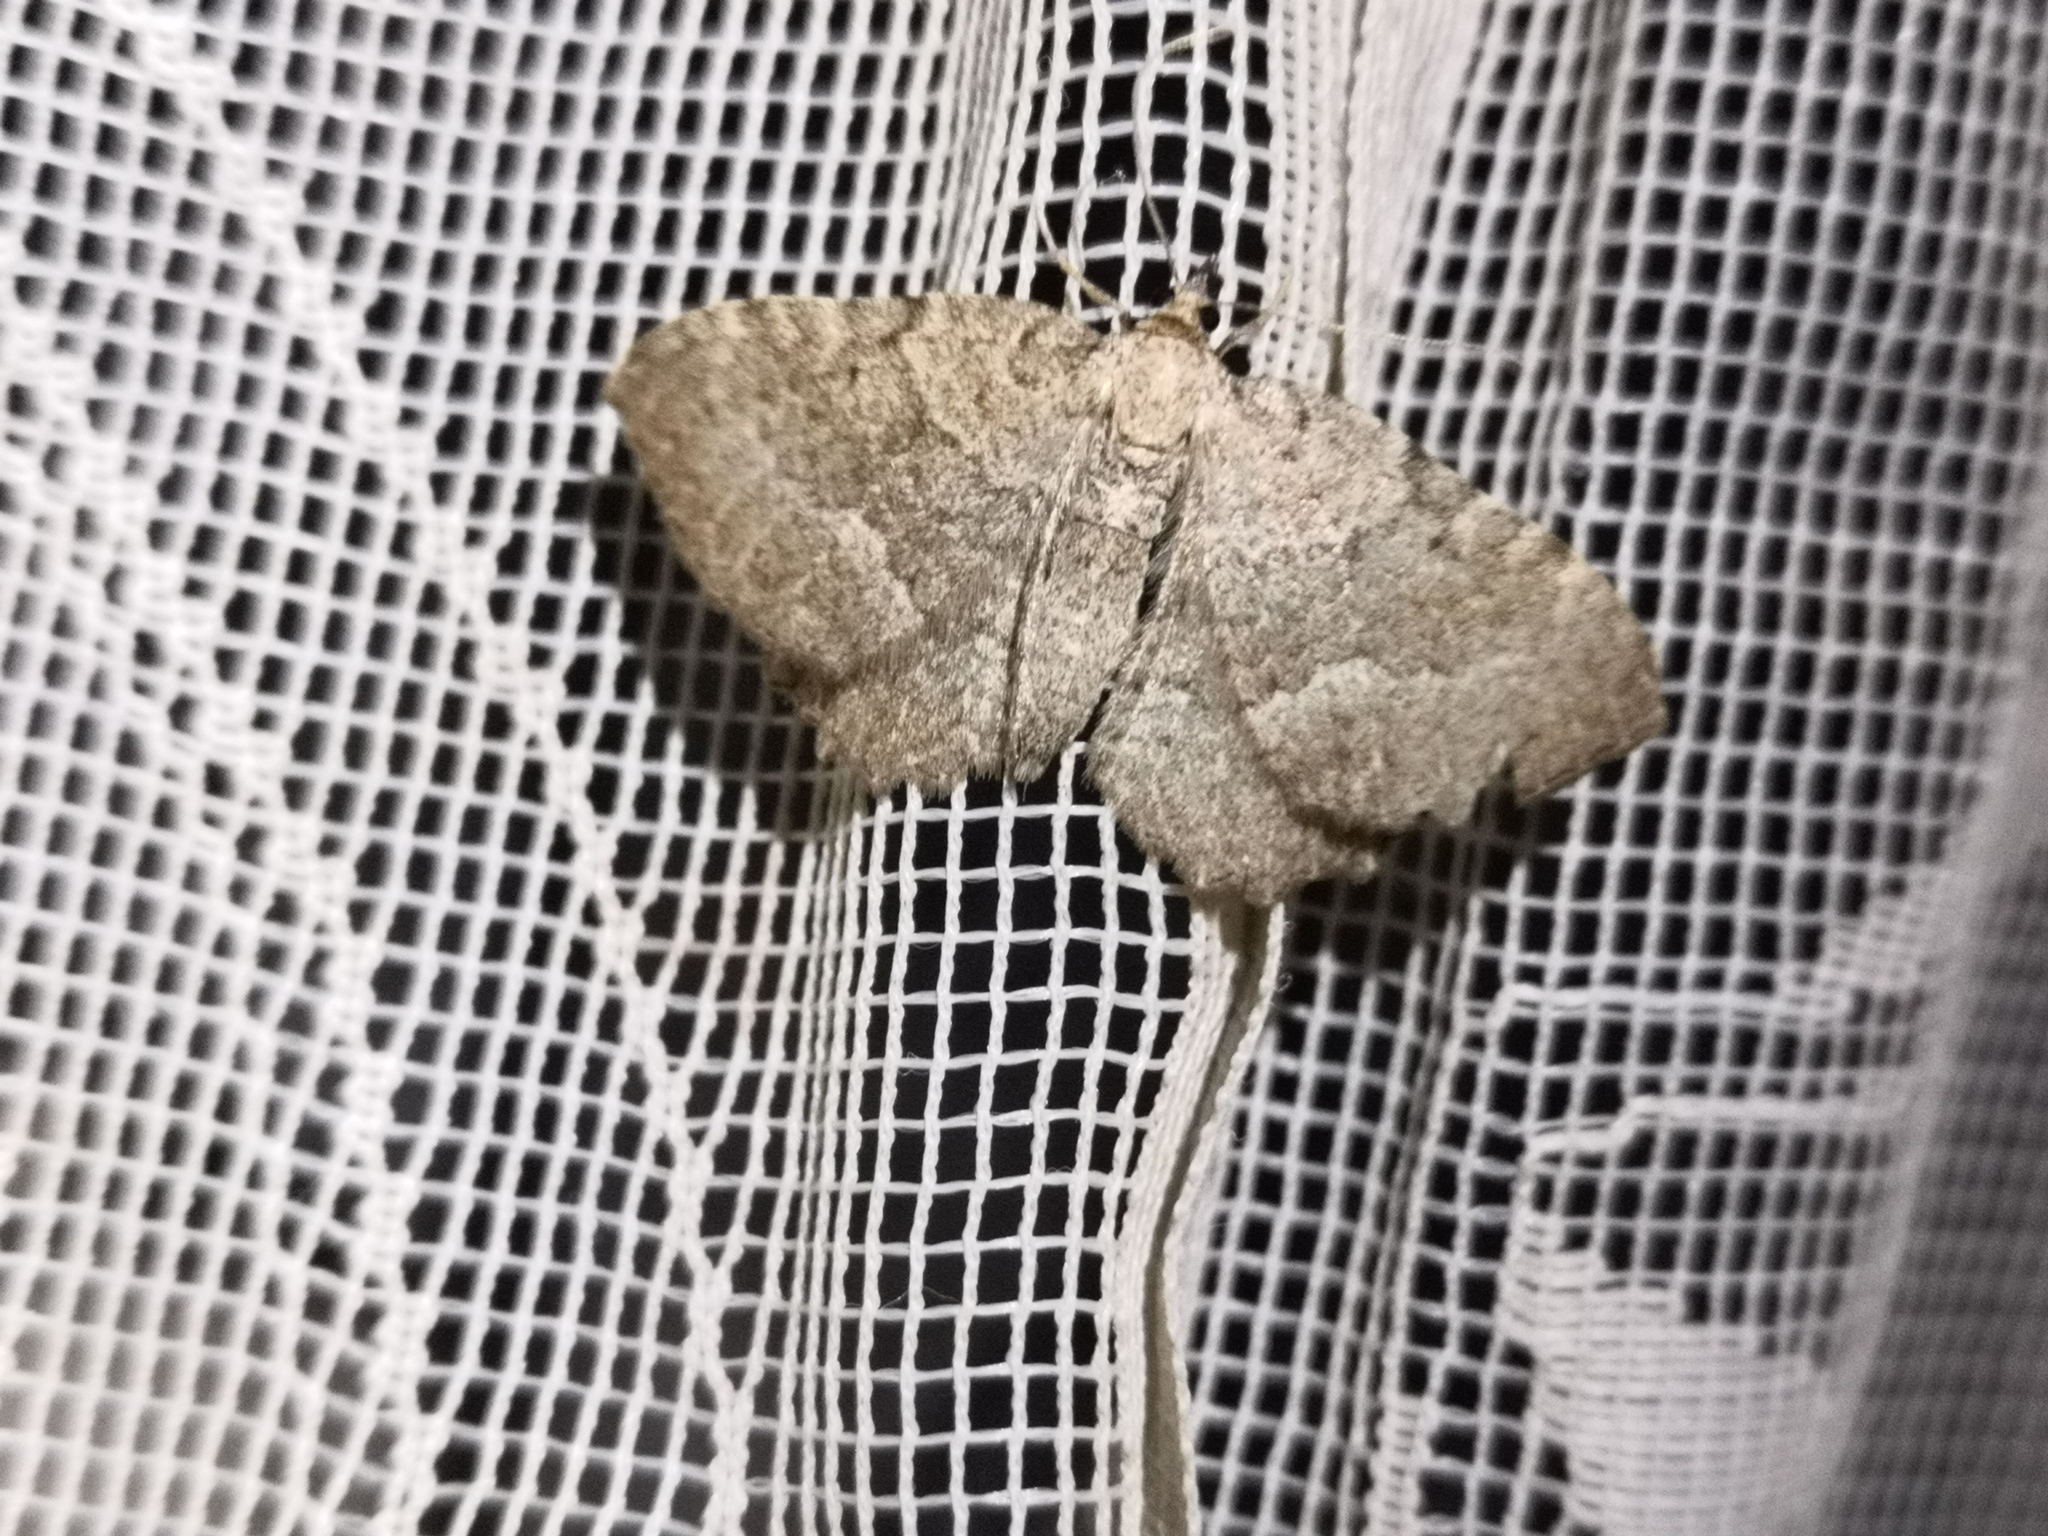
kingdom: Animalia
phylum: Arthropoda
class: Insecta
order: Lepidoptera
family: Geometridae
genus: Philereme
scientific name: Philereme vetulata
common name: Brown scallop
